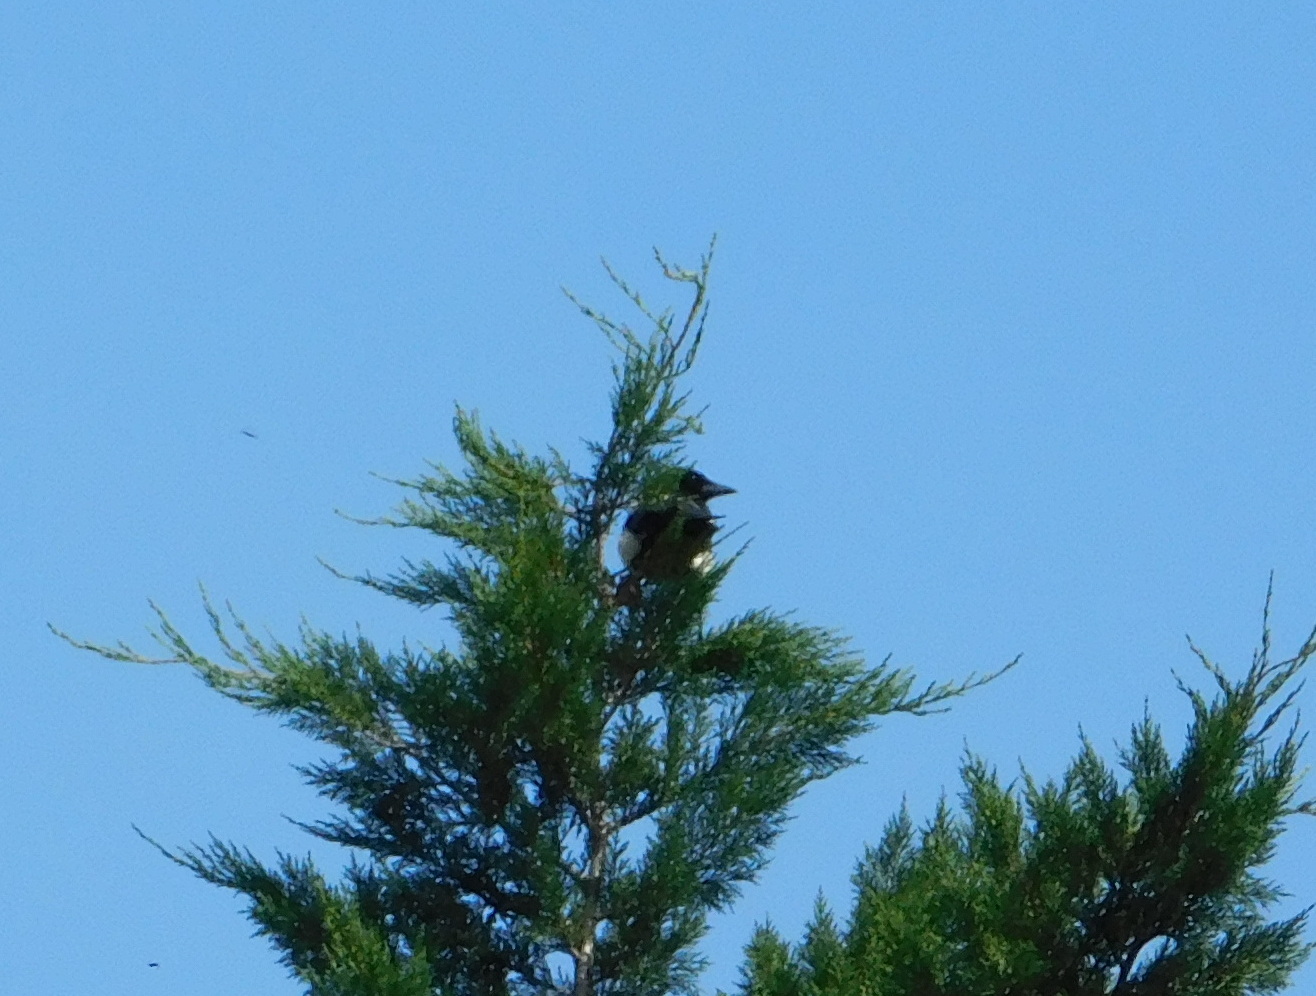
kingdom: Animalia
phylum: Chordata
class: Aves
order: Passeriformes
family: Corvidae
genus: Pica
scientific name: Pica pica
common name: Eurasian magpie
